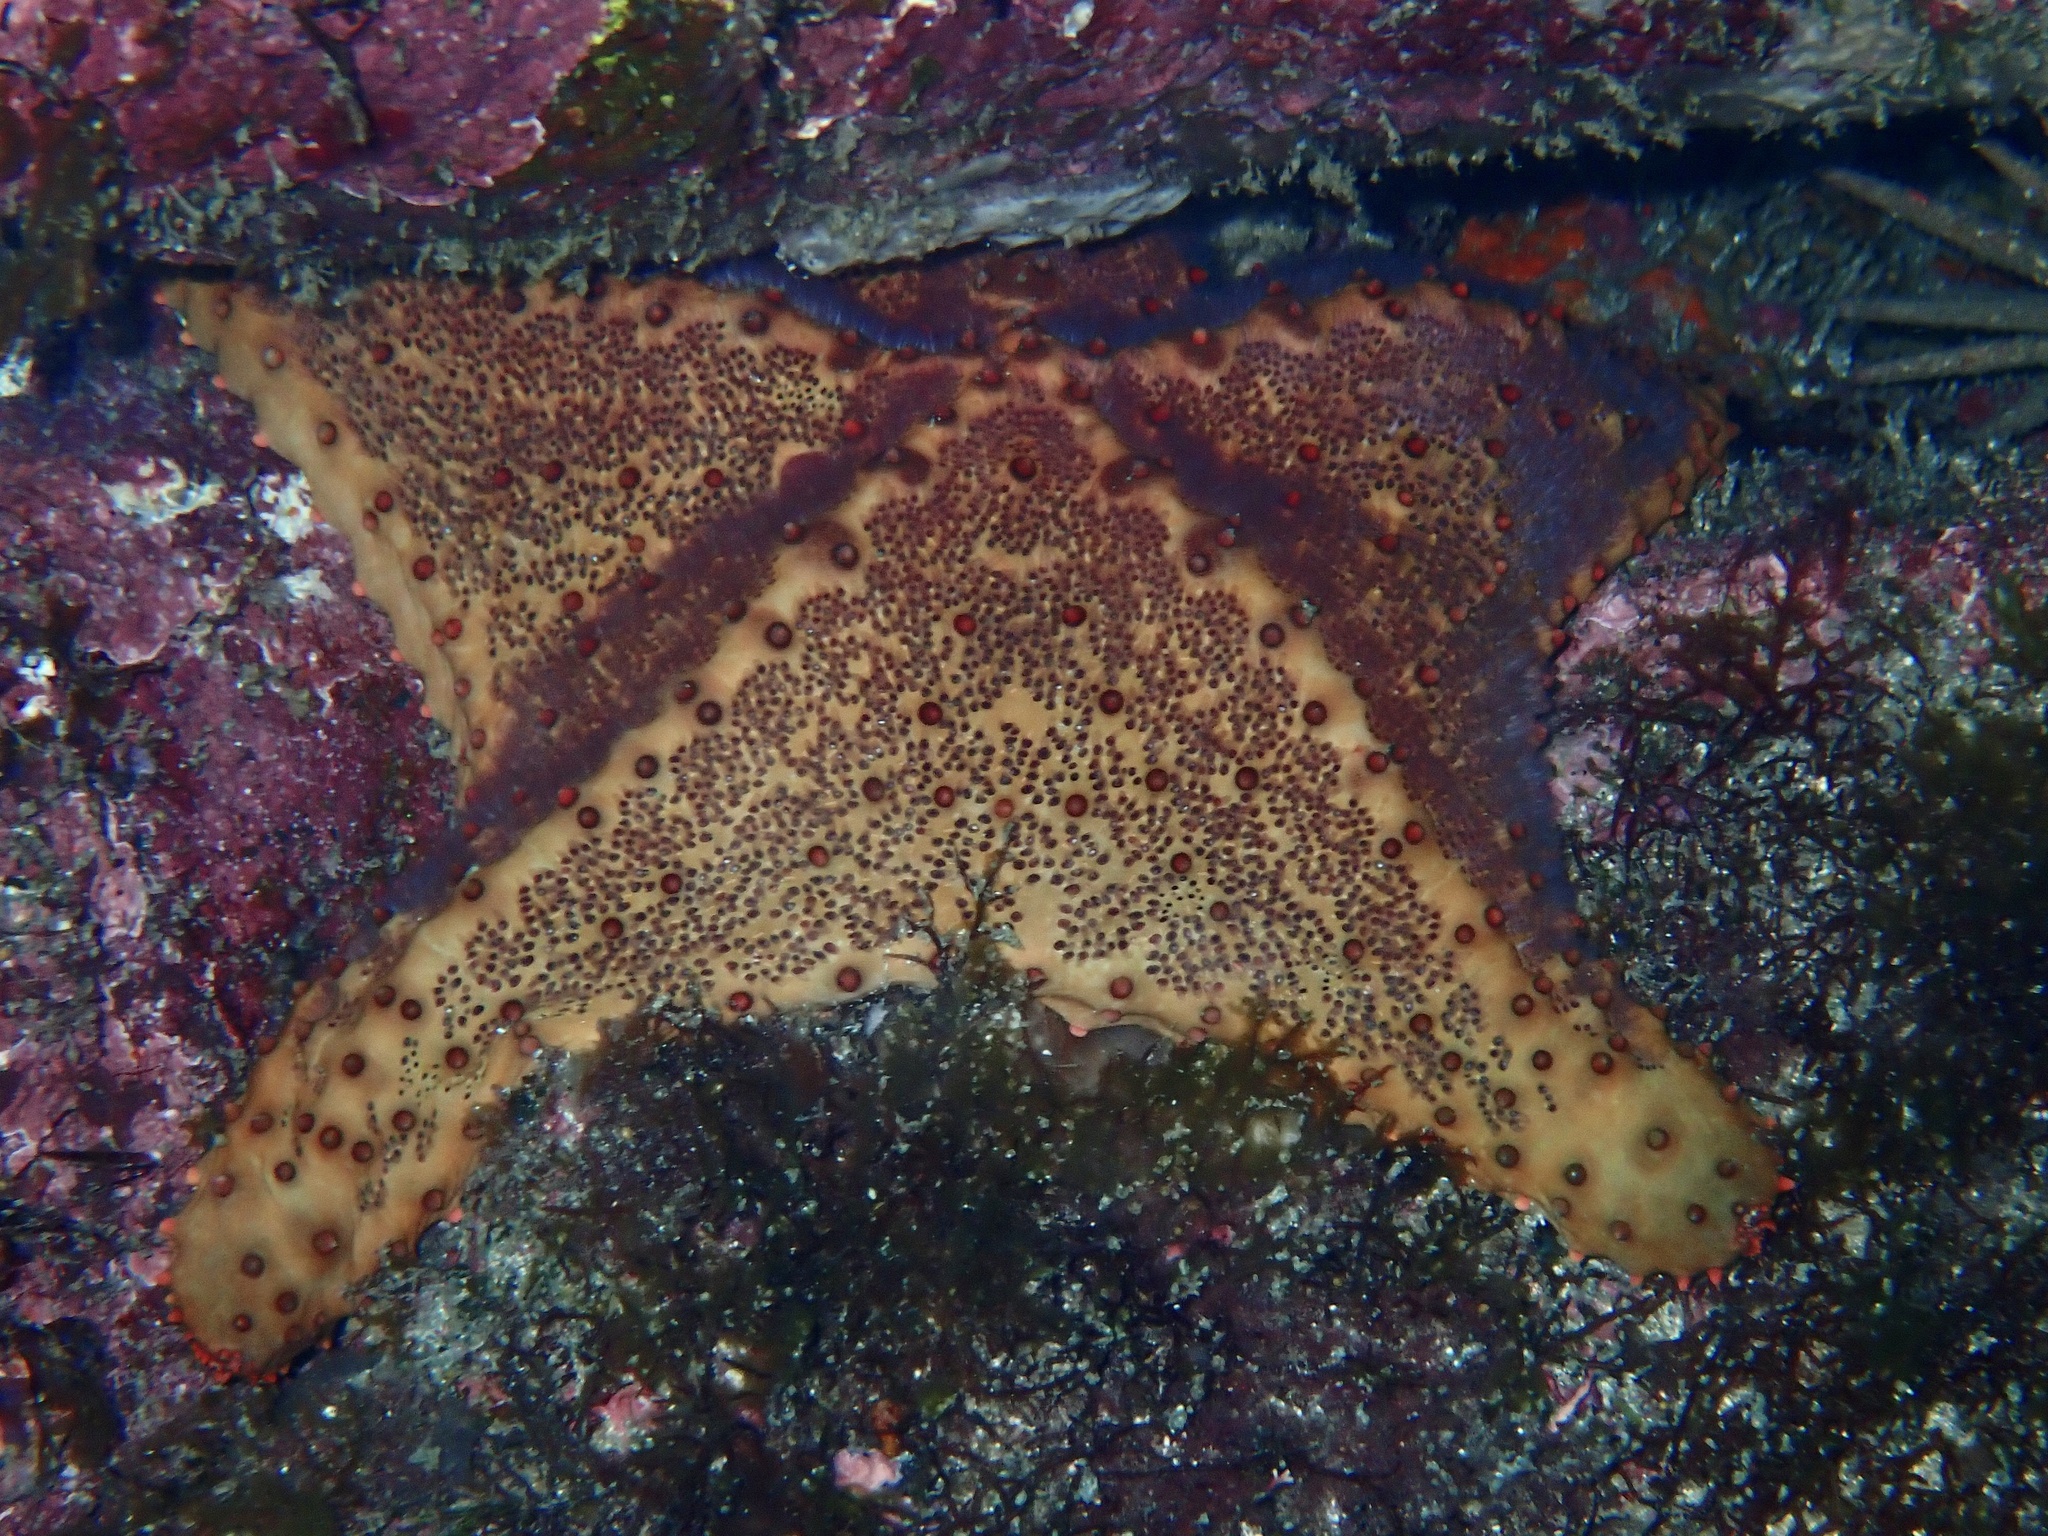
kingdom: Animalia
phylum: Echinodermata
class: Asteroidea
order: Valvatida
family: Oreasteridae
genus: Oreaster
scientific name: Oreaster clavatus
